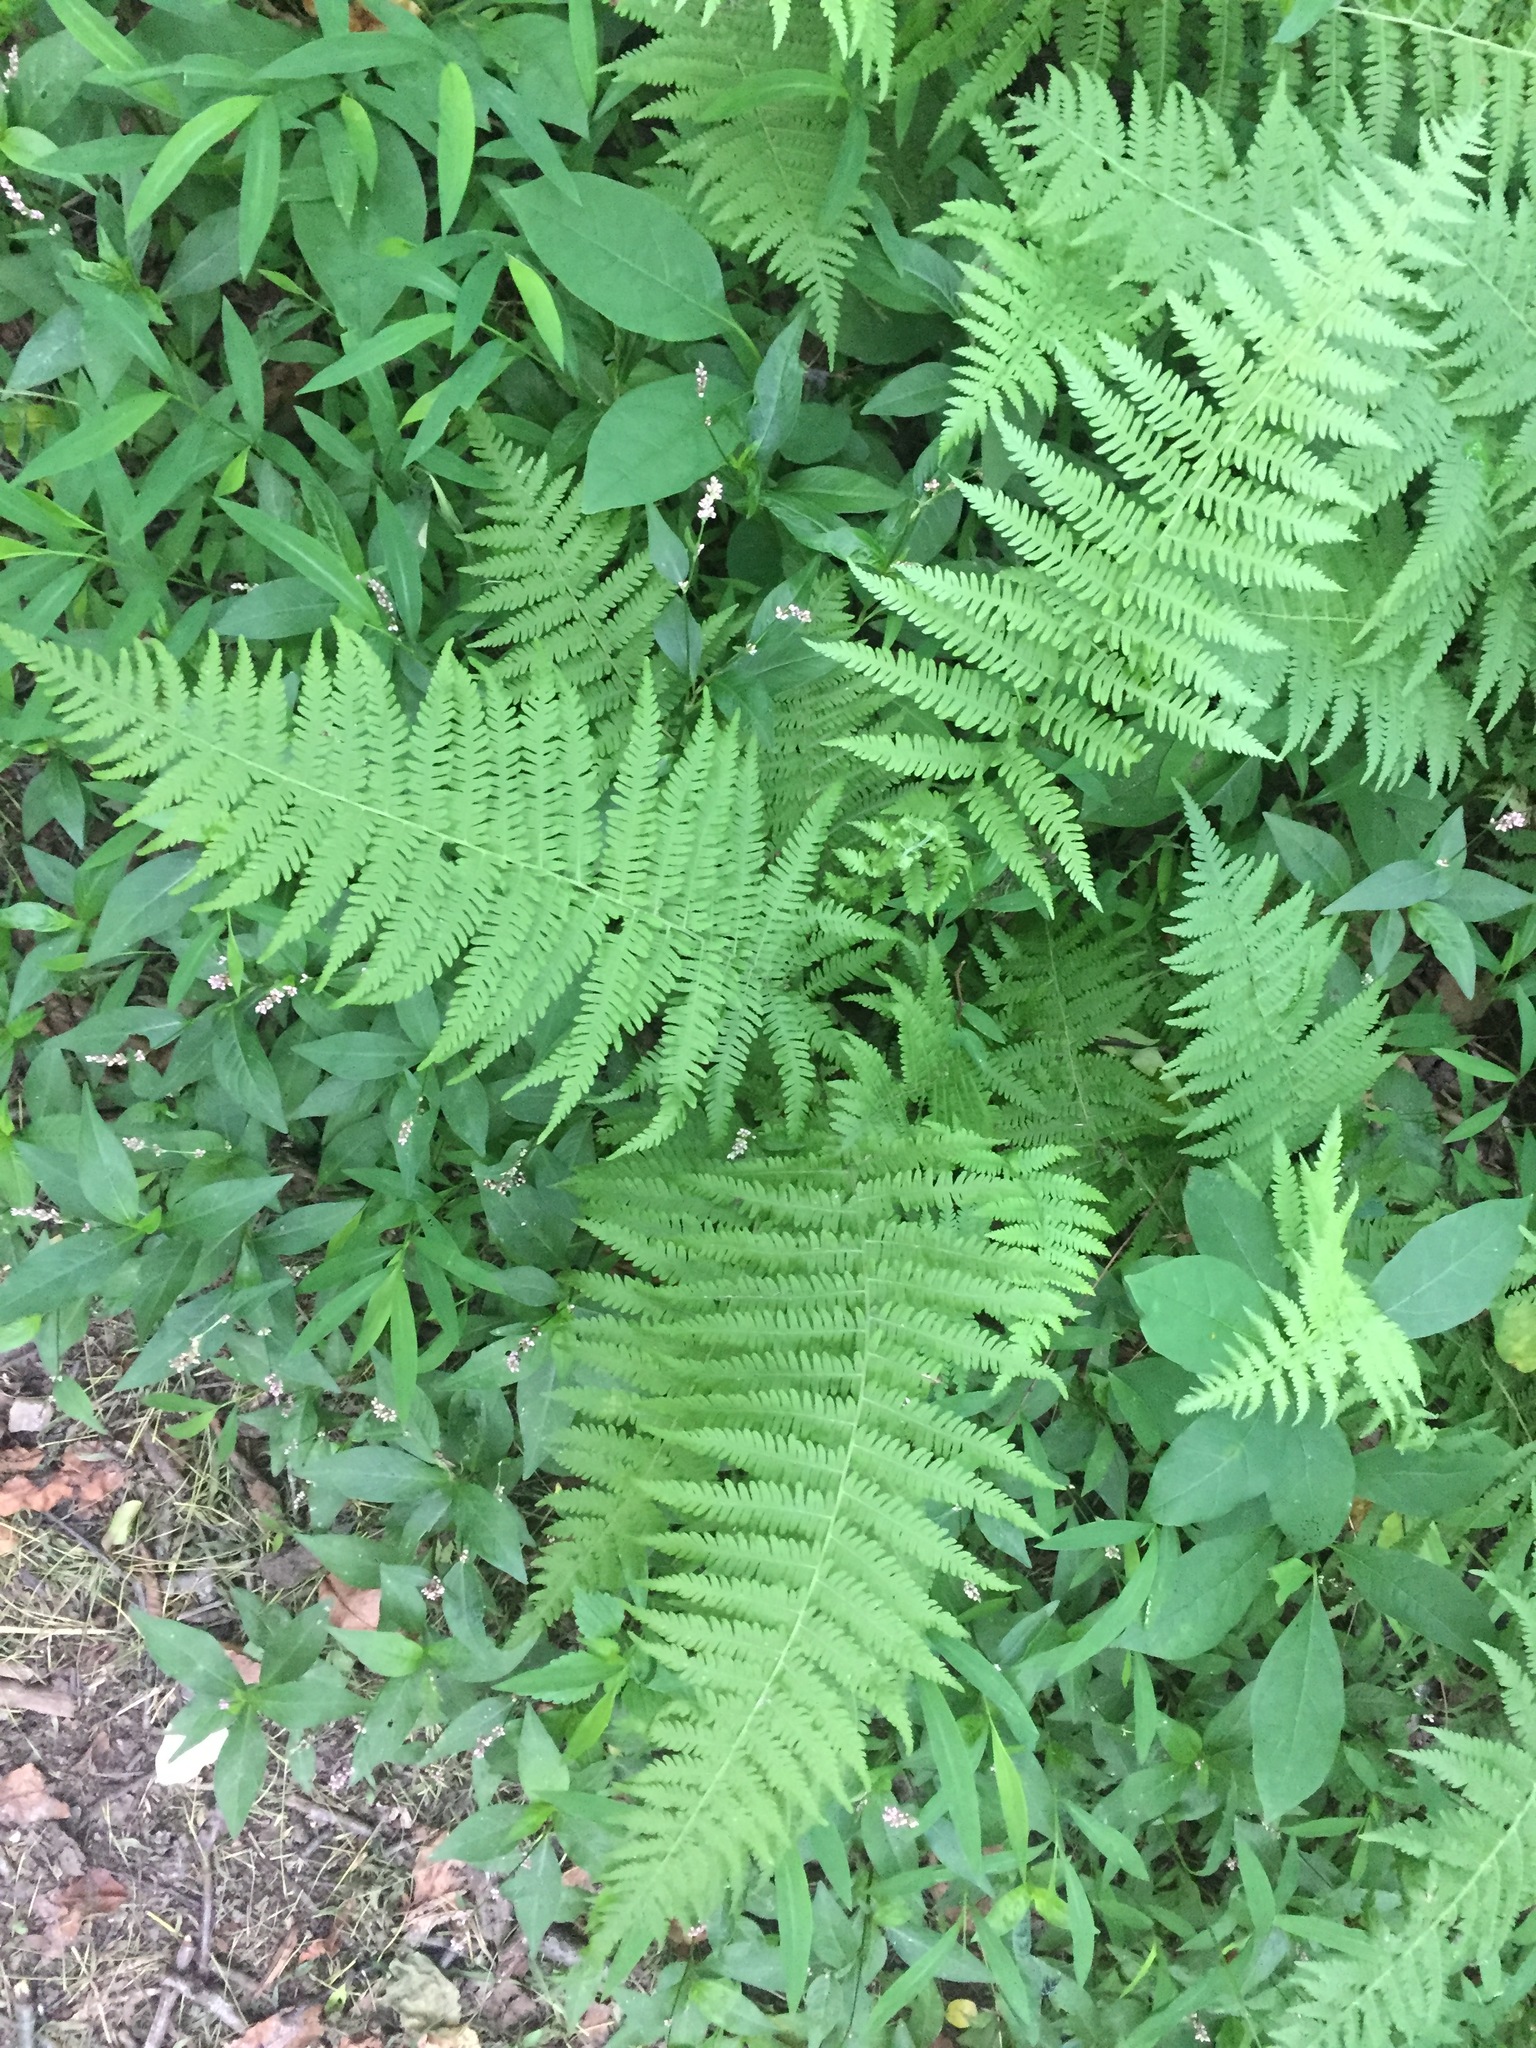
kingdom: Plantae
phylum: Tracheophyta
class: Polypodiopsida
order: Polypodiales
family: Thelypteridaceae
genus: Amauropelta
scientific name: Amauropelta noveboracensis
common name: New york fern
